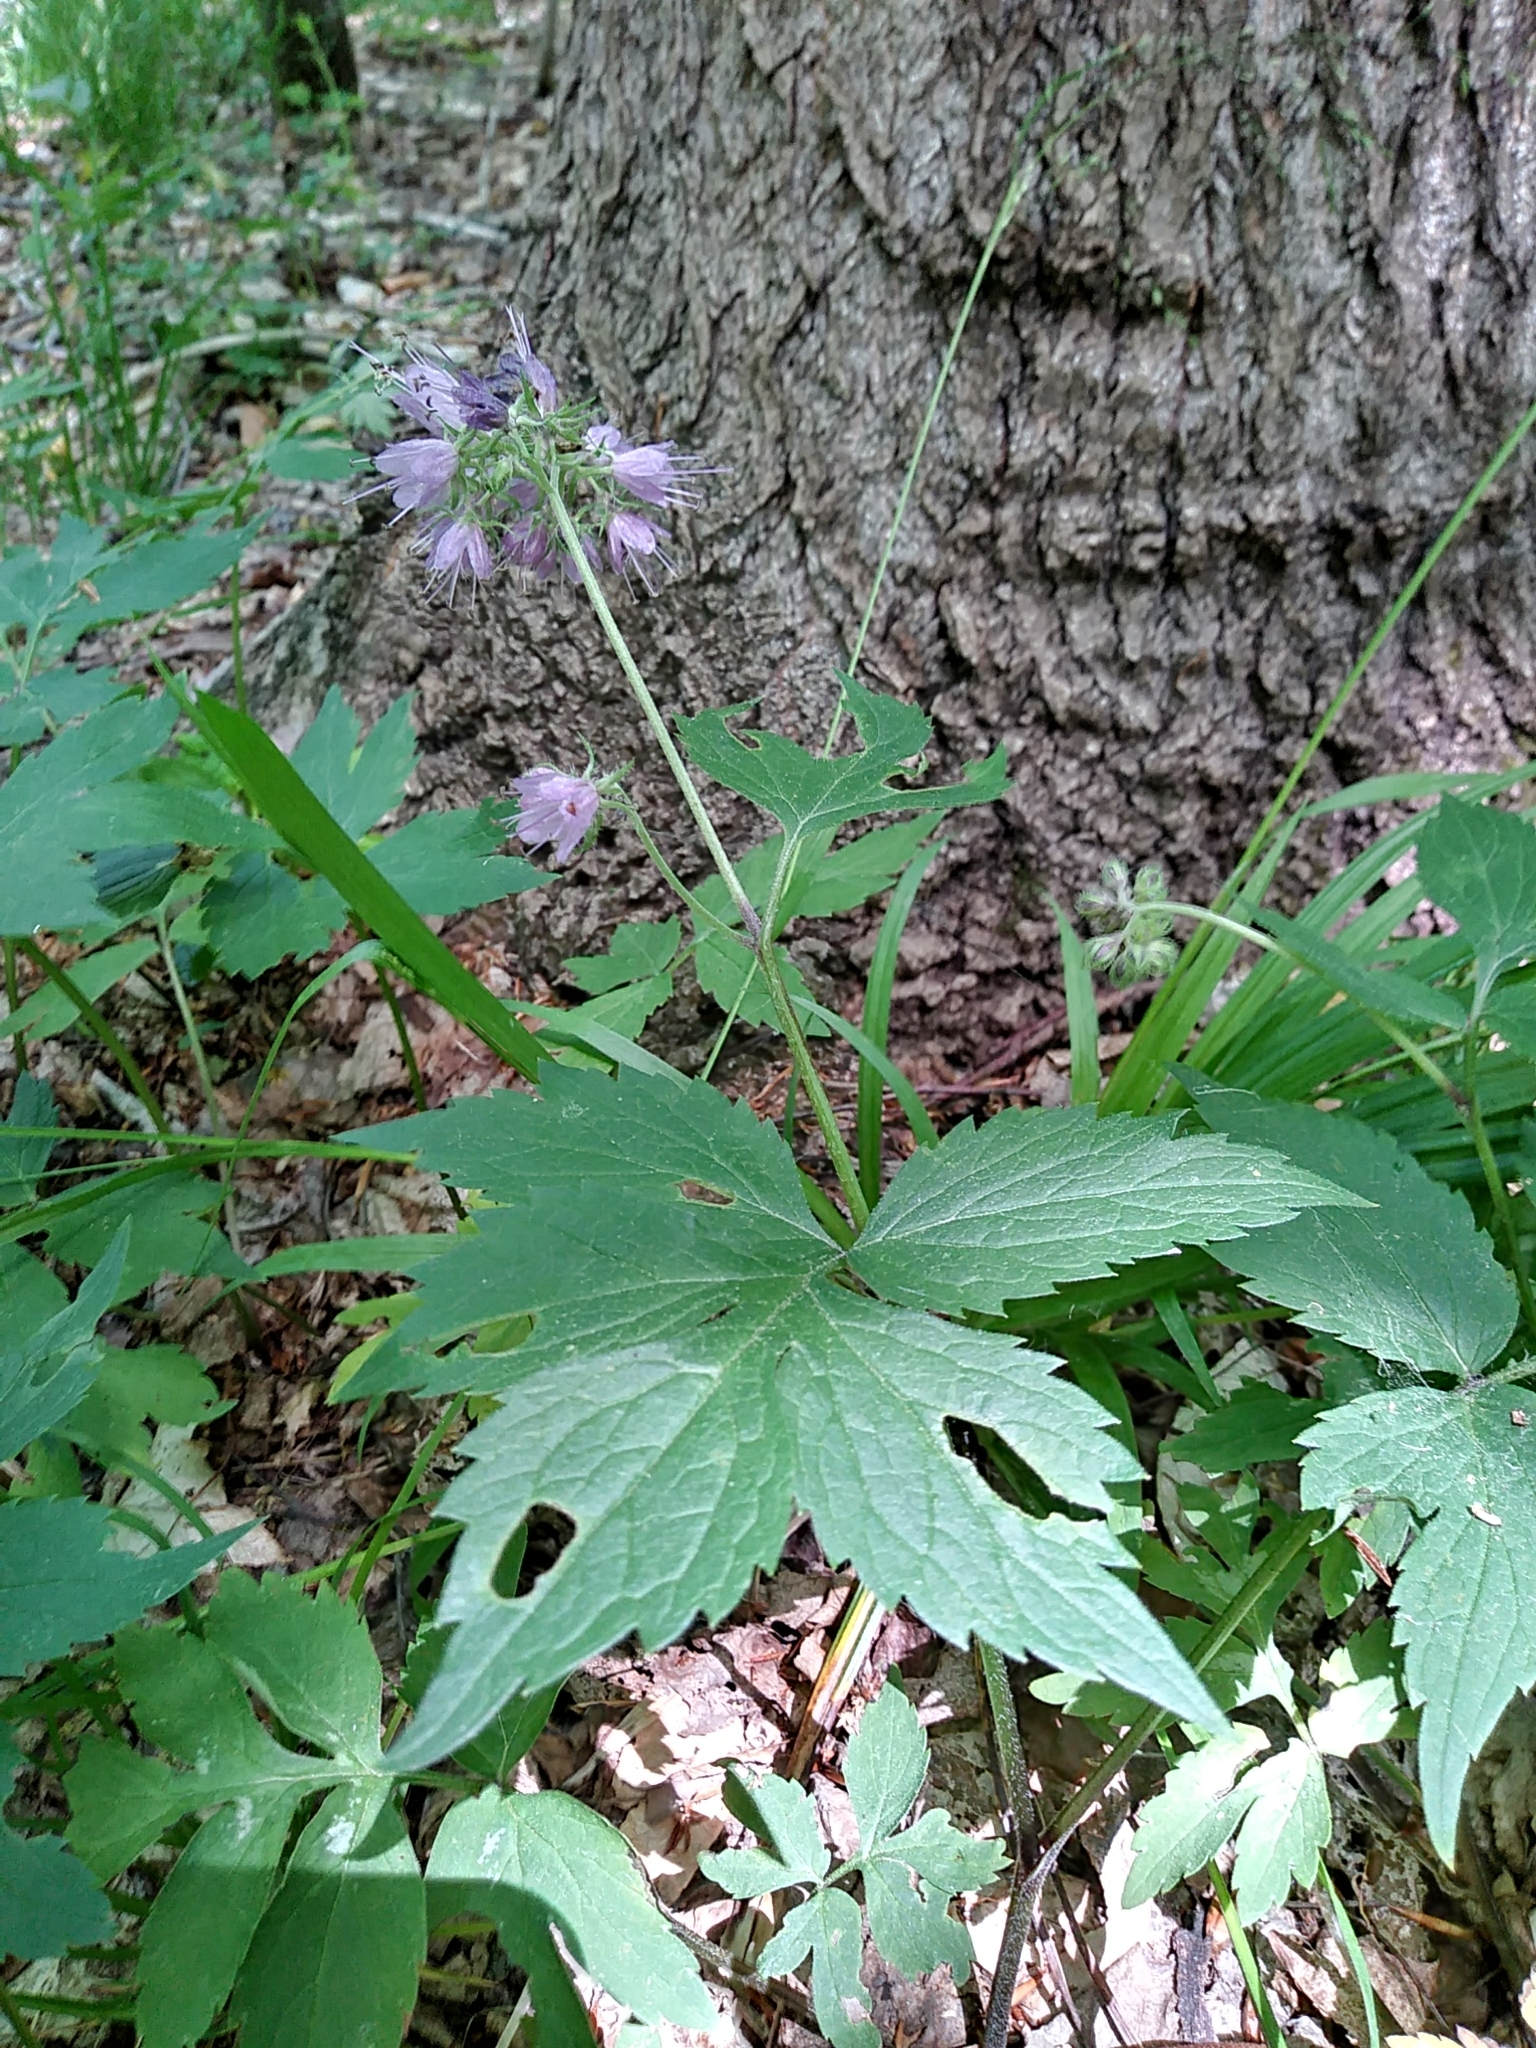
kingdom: Plantae
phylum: Tracheophyta
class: Magnoliopsida
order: Boraginales
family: Hydrophyllaceae
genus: Hydrophyllum
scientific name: Hydrophyllum virginianum
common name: Virginia waterleaf
